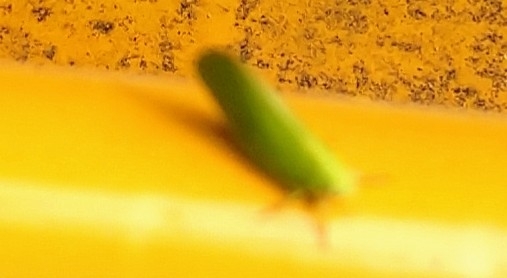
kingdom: Animalia
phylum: Arthropoda
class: Insecta
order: Hemiptera
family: Acanaloniidae
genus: Acanalonia
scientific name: Acanalonia conica
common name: Green cone-headed planthopper
